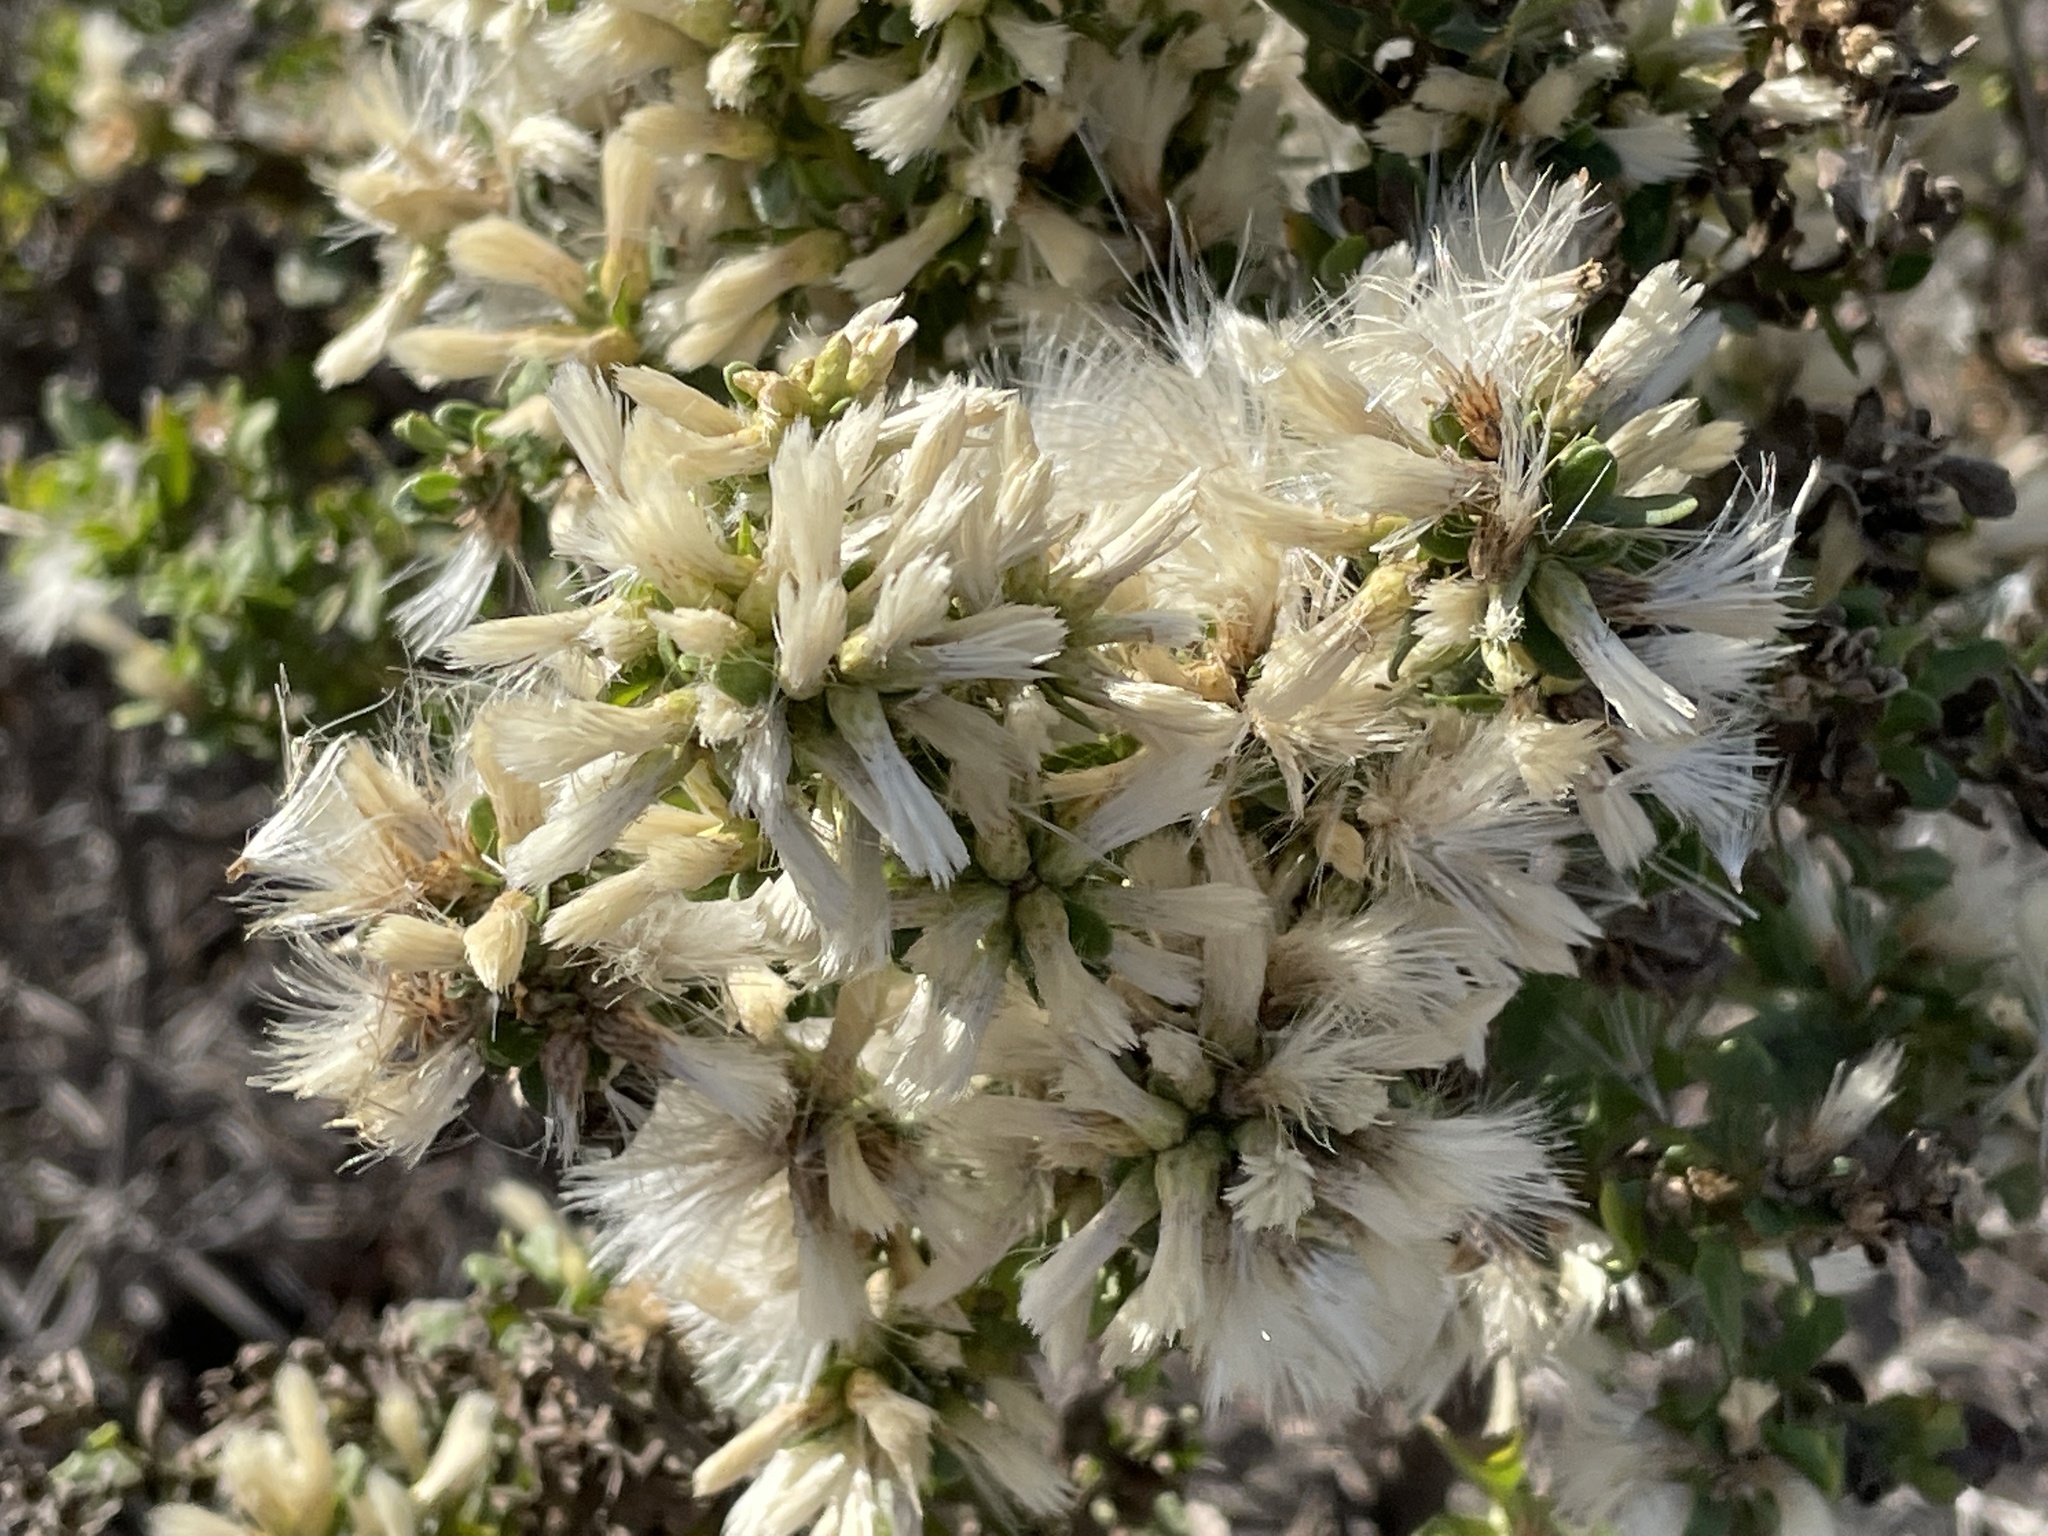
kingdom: Plantae
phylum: Tracheophyta
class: Magnoliopsida
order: Asterales
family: Asteraceae
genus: Baccharis
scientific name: Baccharis pilularis
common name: Coyotebrush
